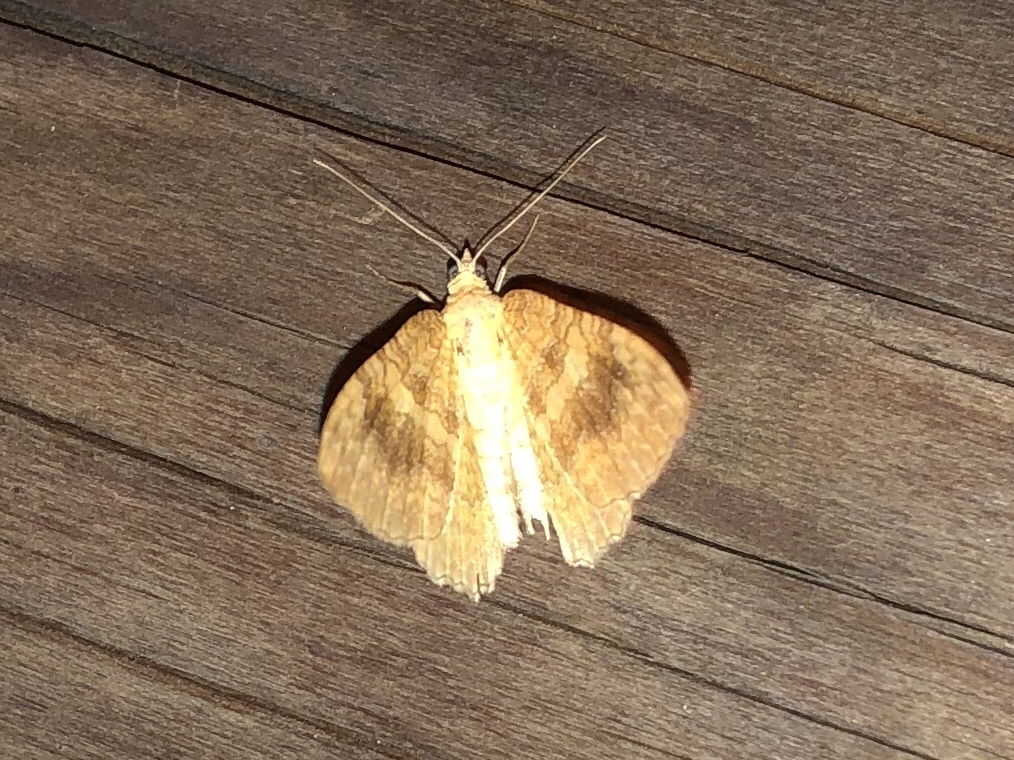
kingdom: Animalia
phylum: Arthropoda
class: Insecta
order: Lepidoptera
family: Geometridae
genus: Camptogramma
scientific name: Camptogramma bilineata
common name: Yellow shell
